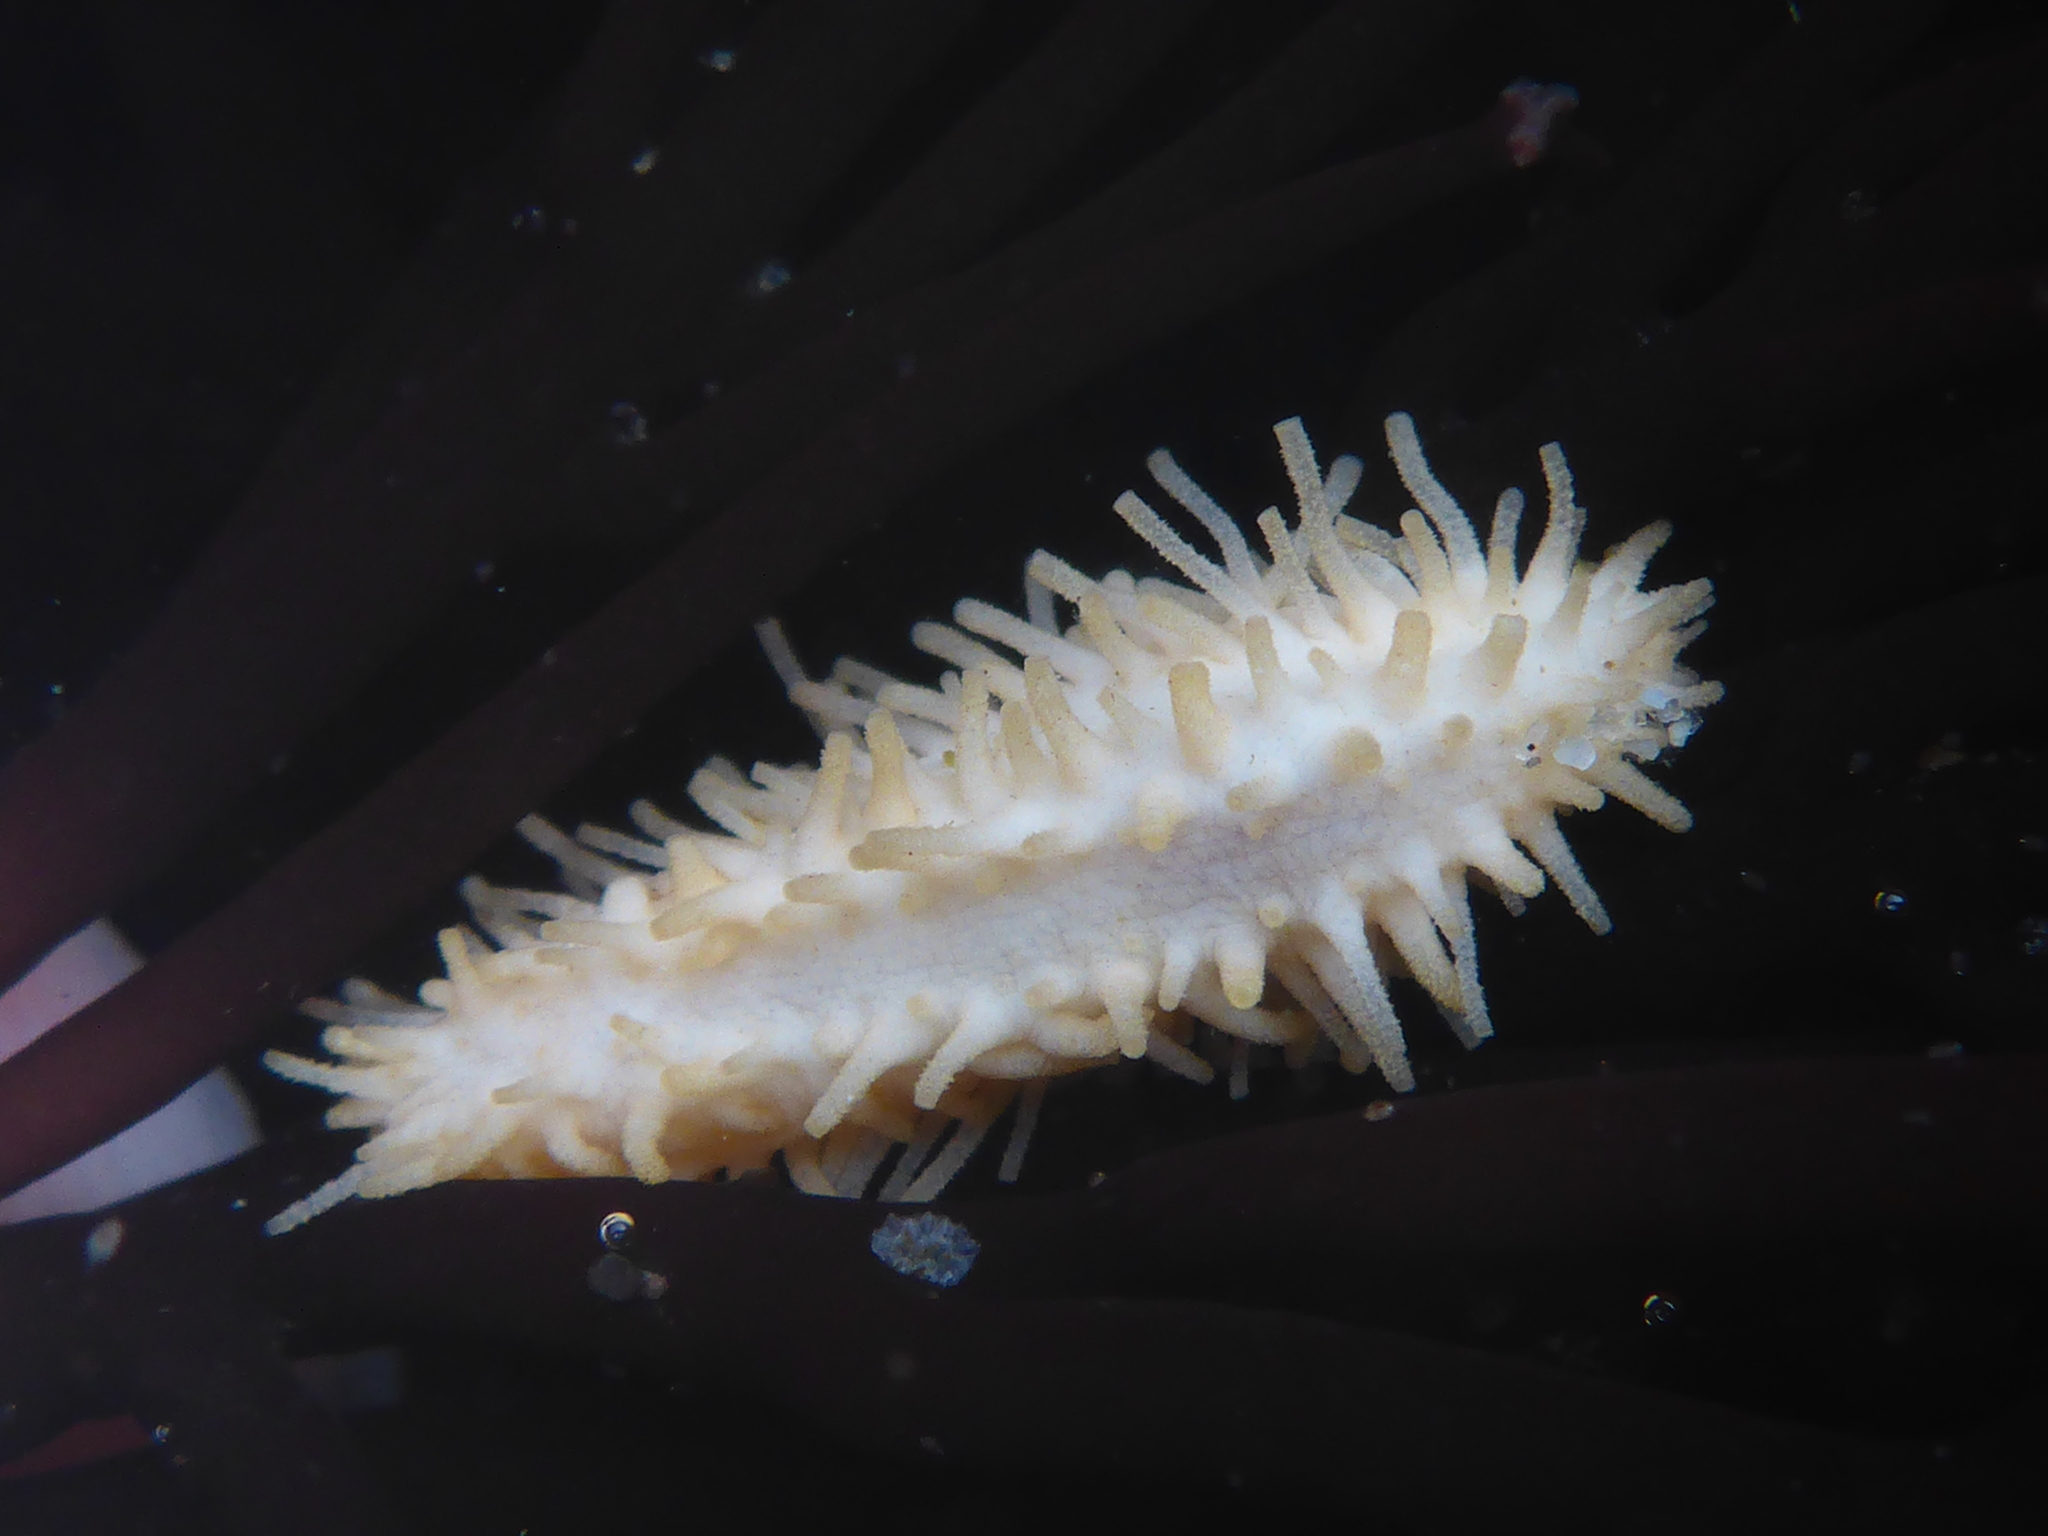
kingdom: Animalia
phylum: Echinodermata
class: Holothuroidea
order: Dendrochirotida
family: Sclerodactylidae
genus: Eupentacta
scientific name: Eupentacta quinquesemita
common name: Pentamerous sea cucumber
